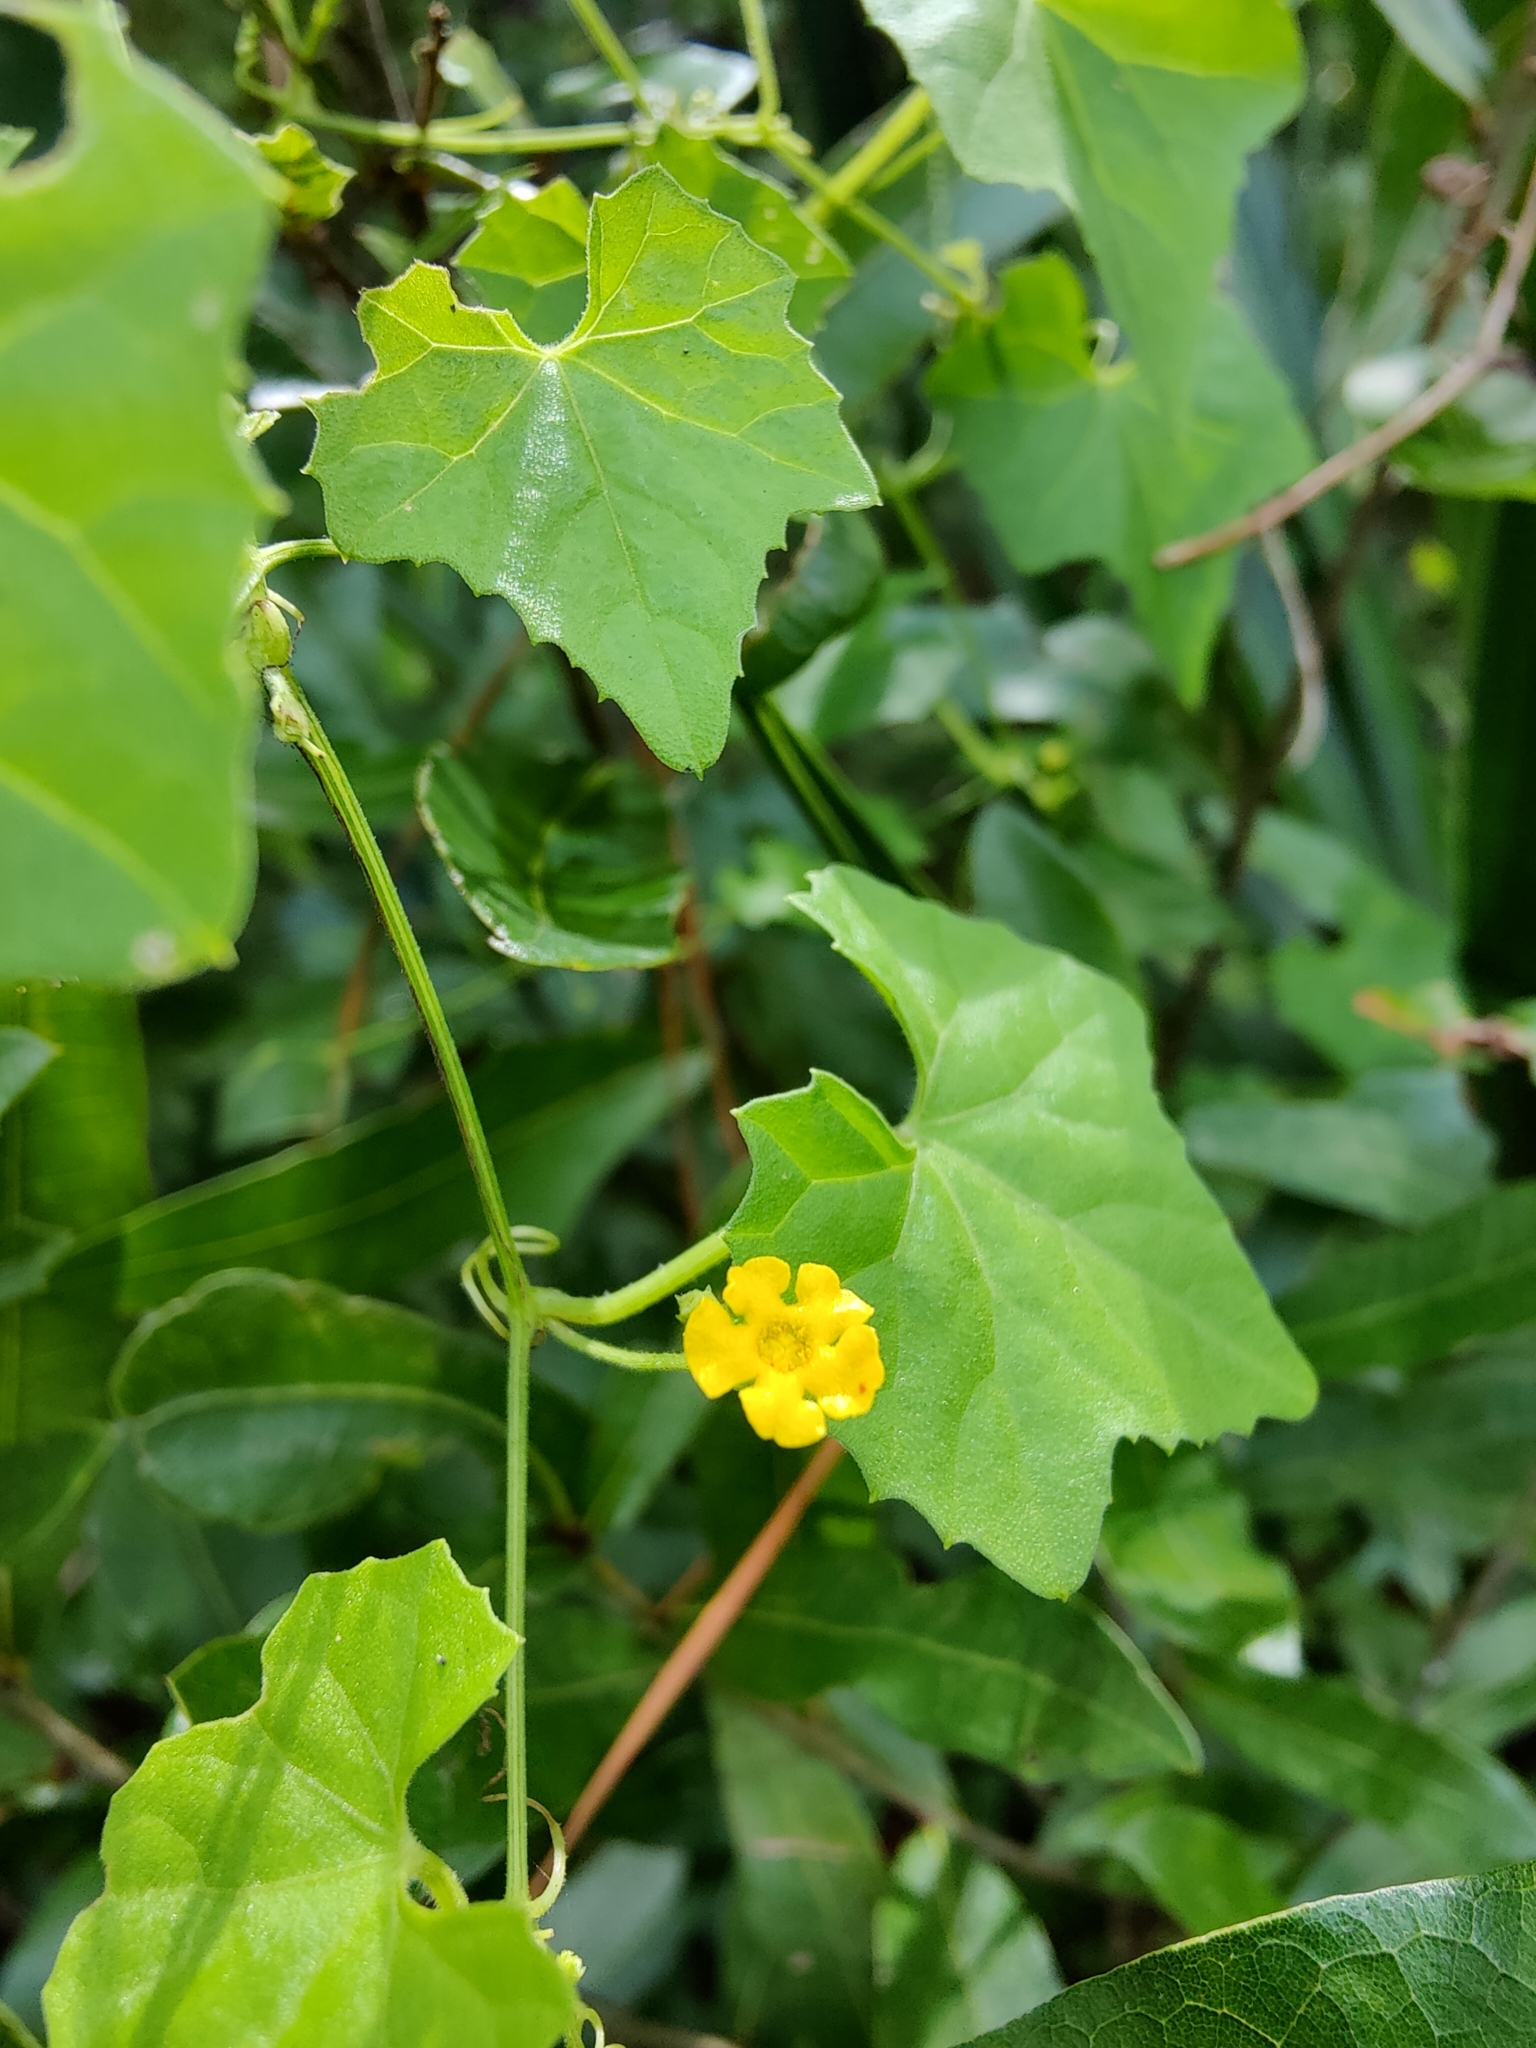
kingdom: Plantae
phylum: Tracheophyta
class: Magnoliopsida
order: Cucurbitales
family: Cucurbitaceae
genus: Melothria
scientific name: Melothria pendula
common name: Creeping-cucumber
